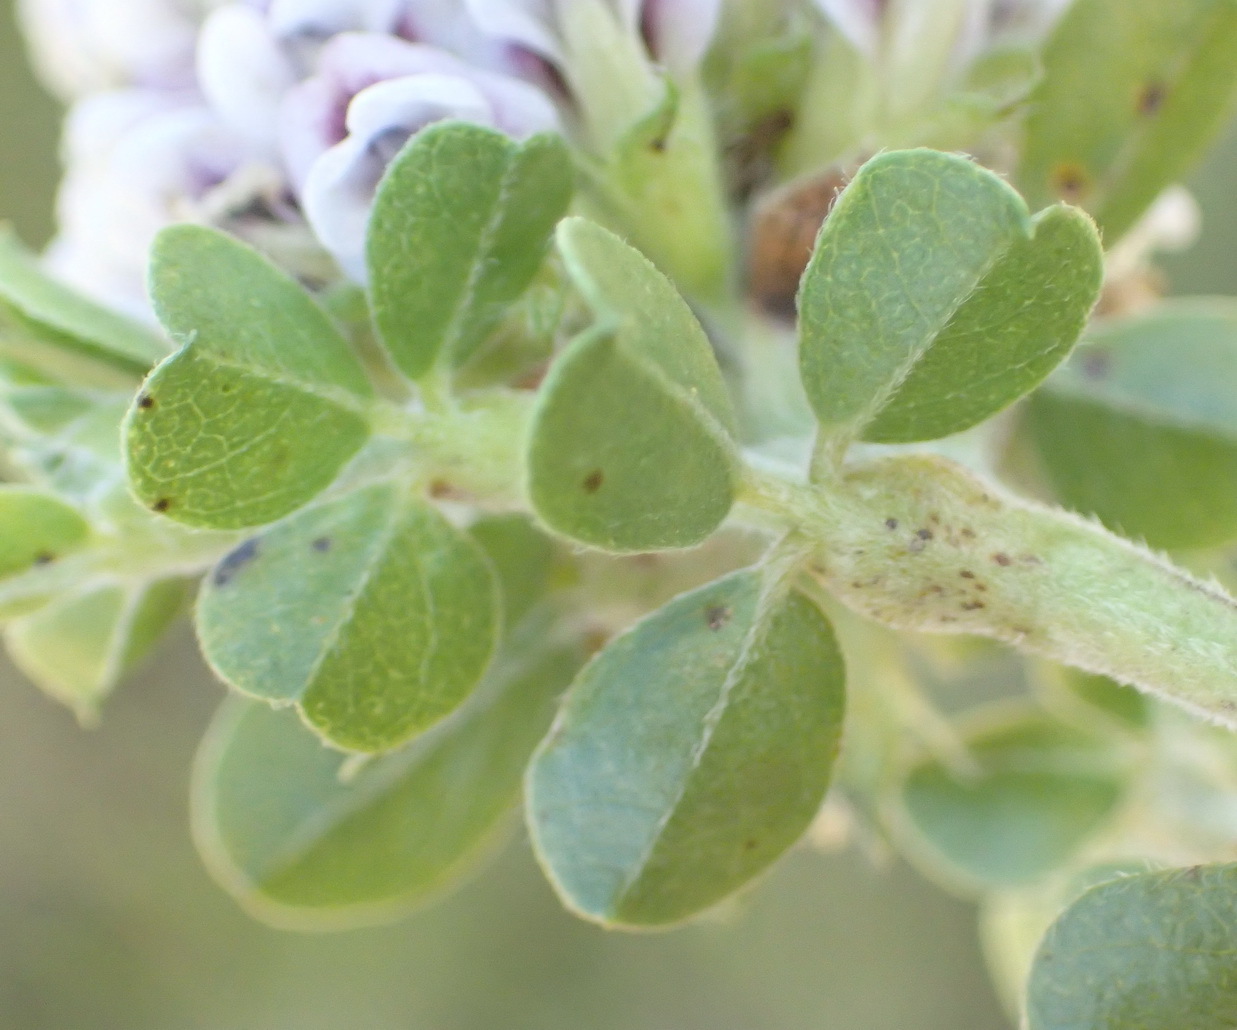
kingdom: Plantae
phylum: Tracheophyta
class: Magnoliopsida
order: Fabales
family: Fabaceae
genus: Psoralea
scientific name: Psoralea stachyera
